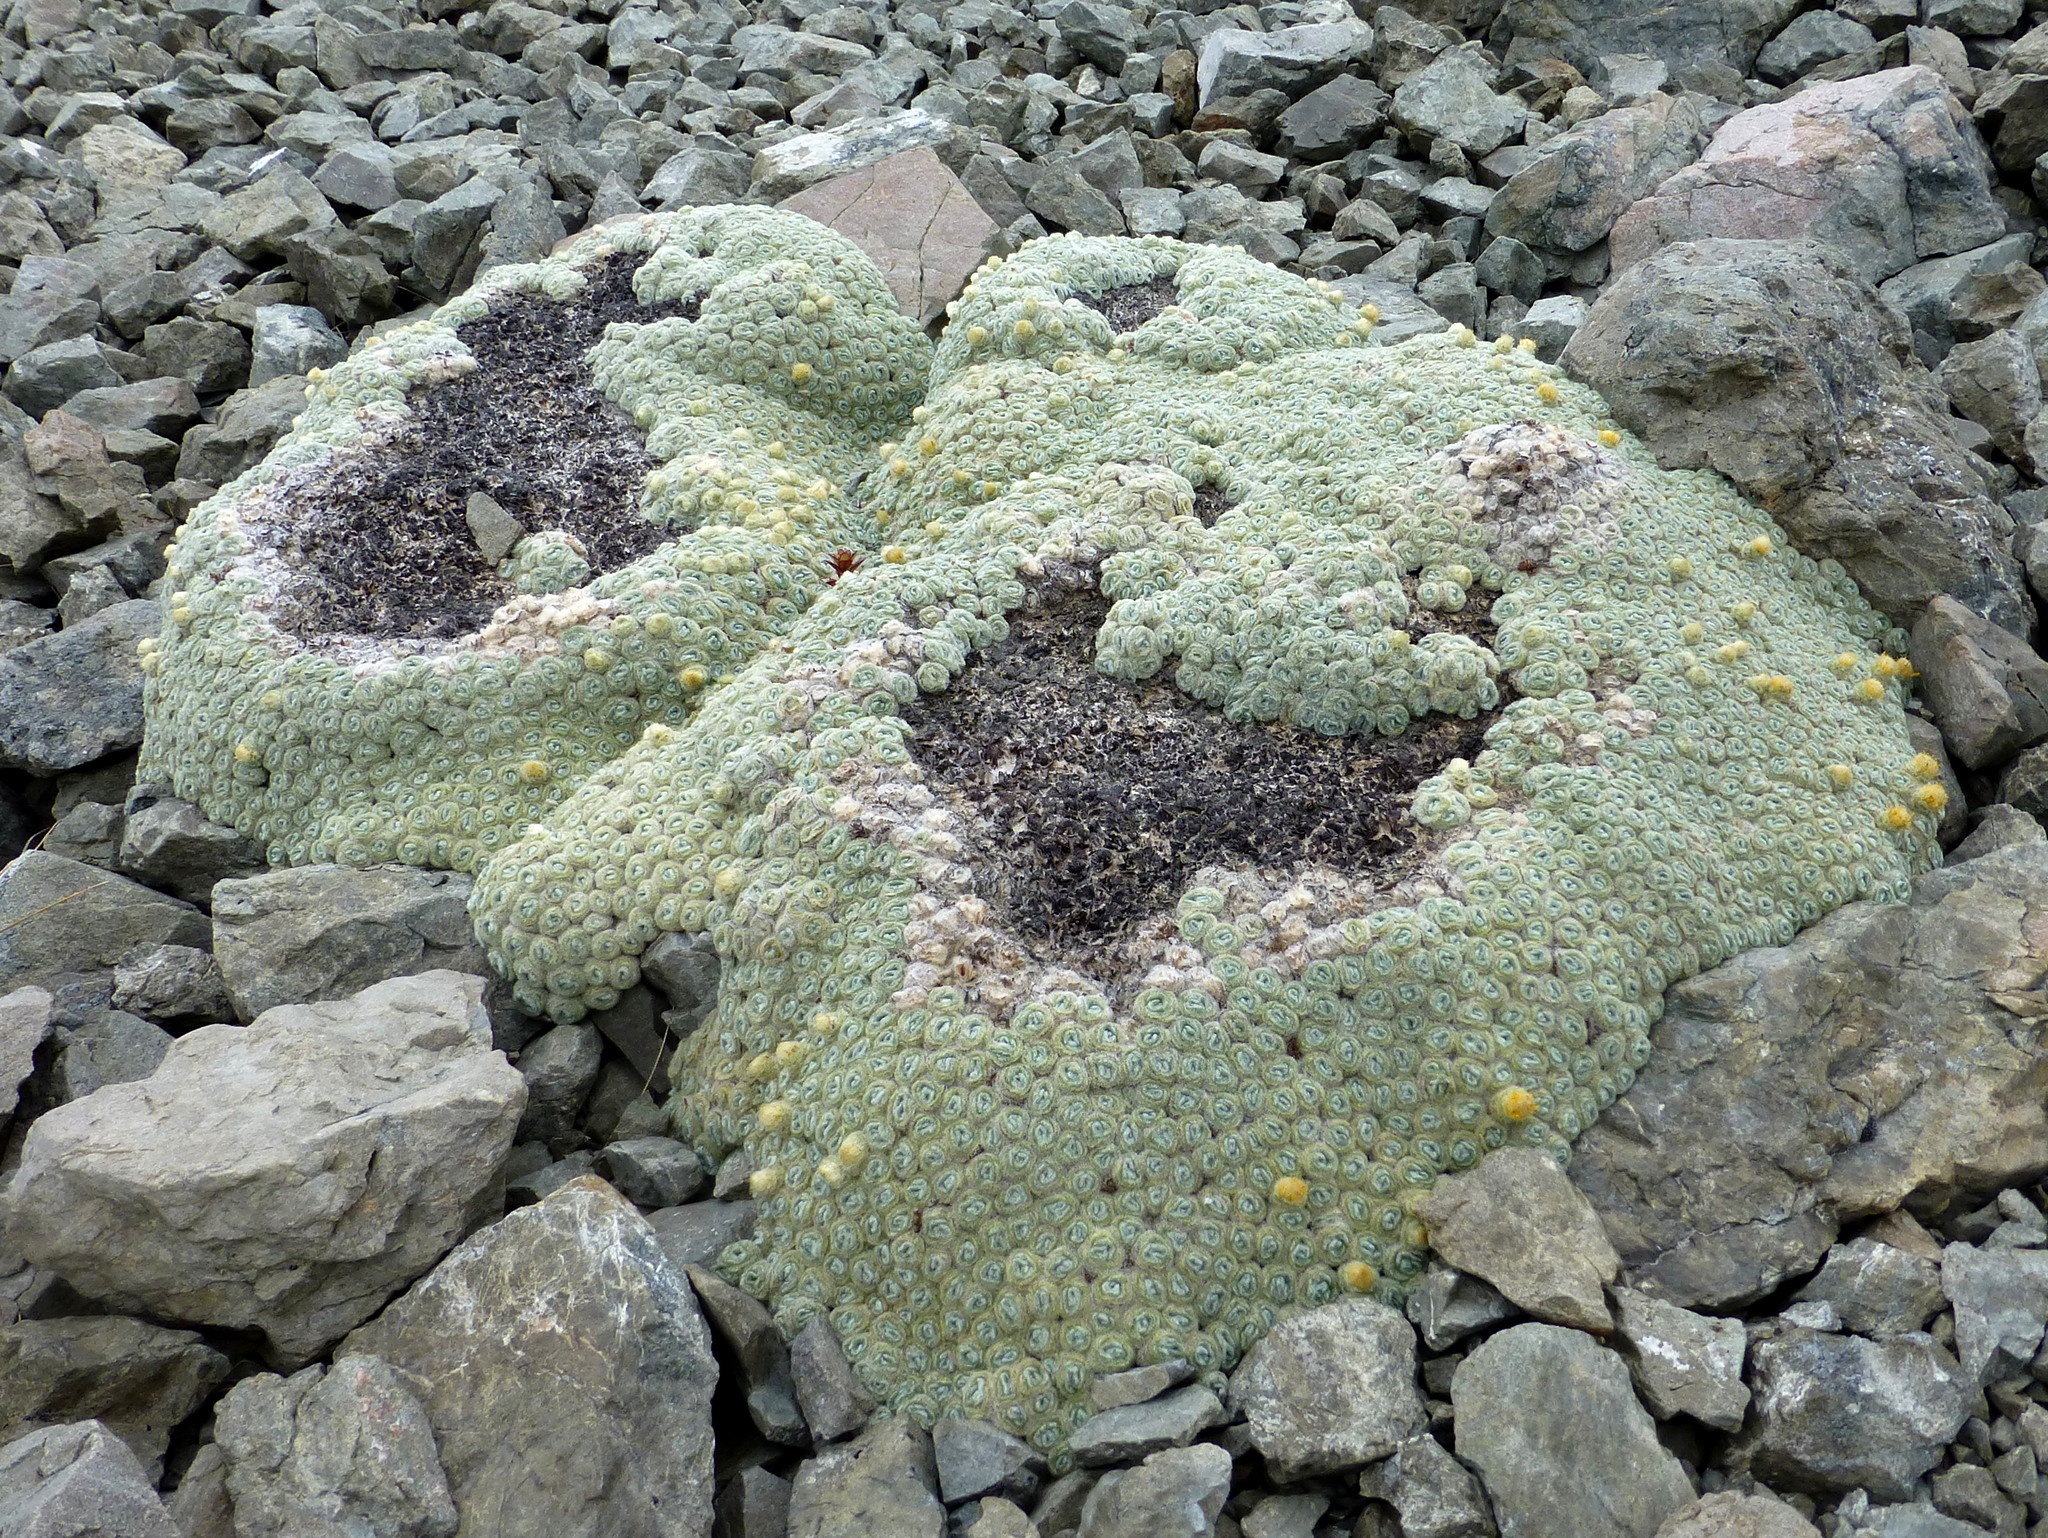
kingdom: Plantae
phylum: Tracheophyta
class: Magnoliopsida
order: Asterales
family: Asteraceae
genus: Haastia
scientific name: Haastia pulvinaris
